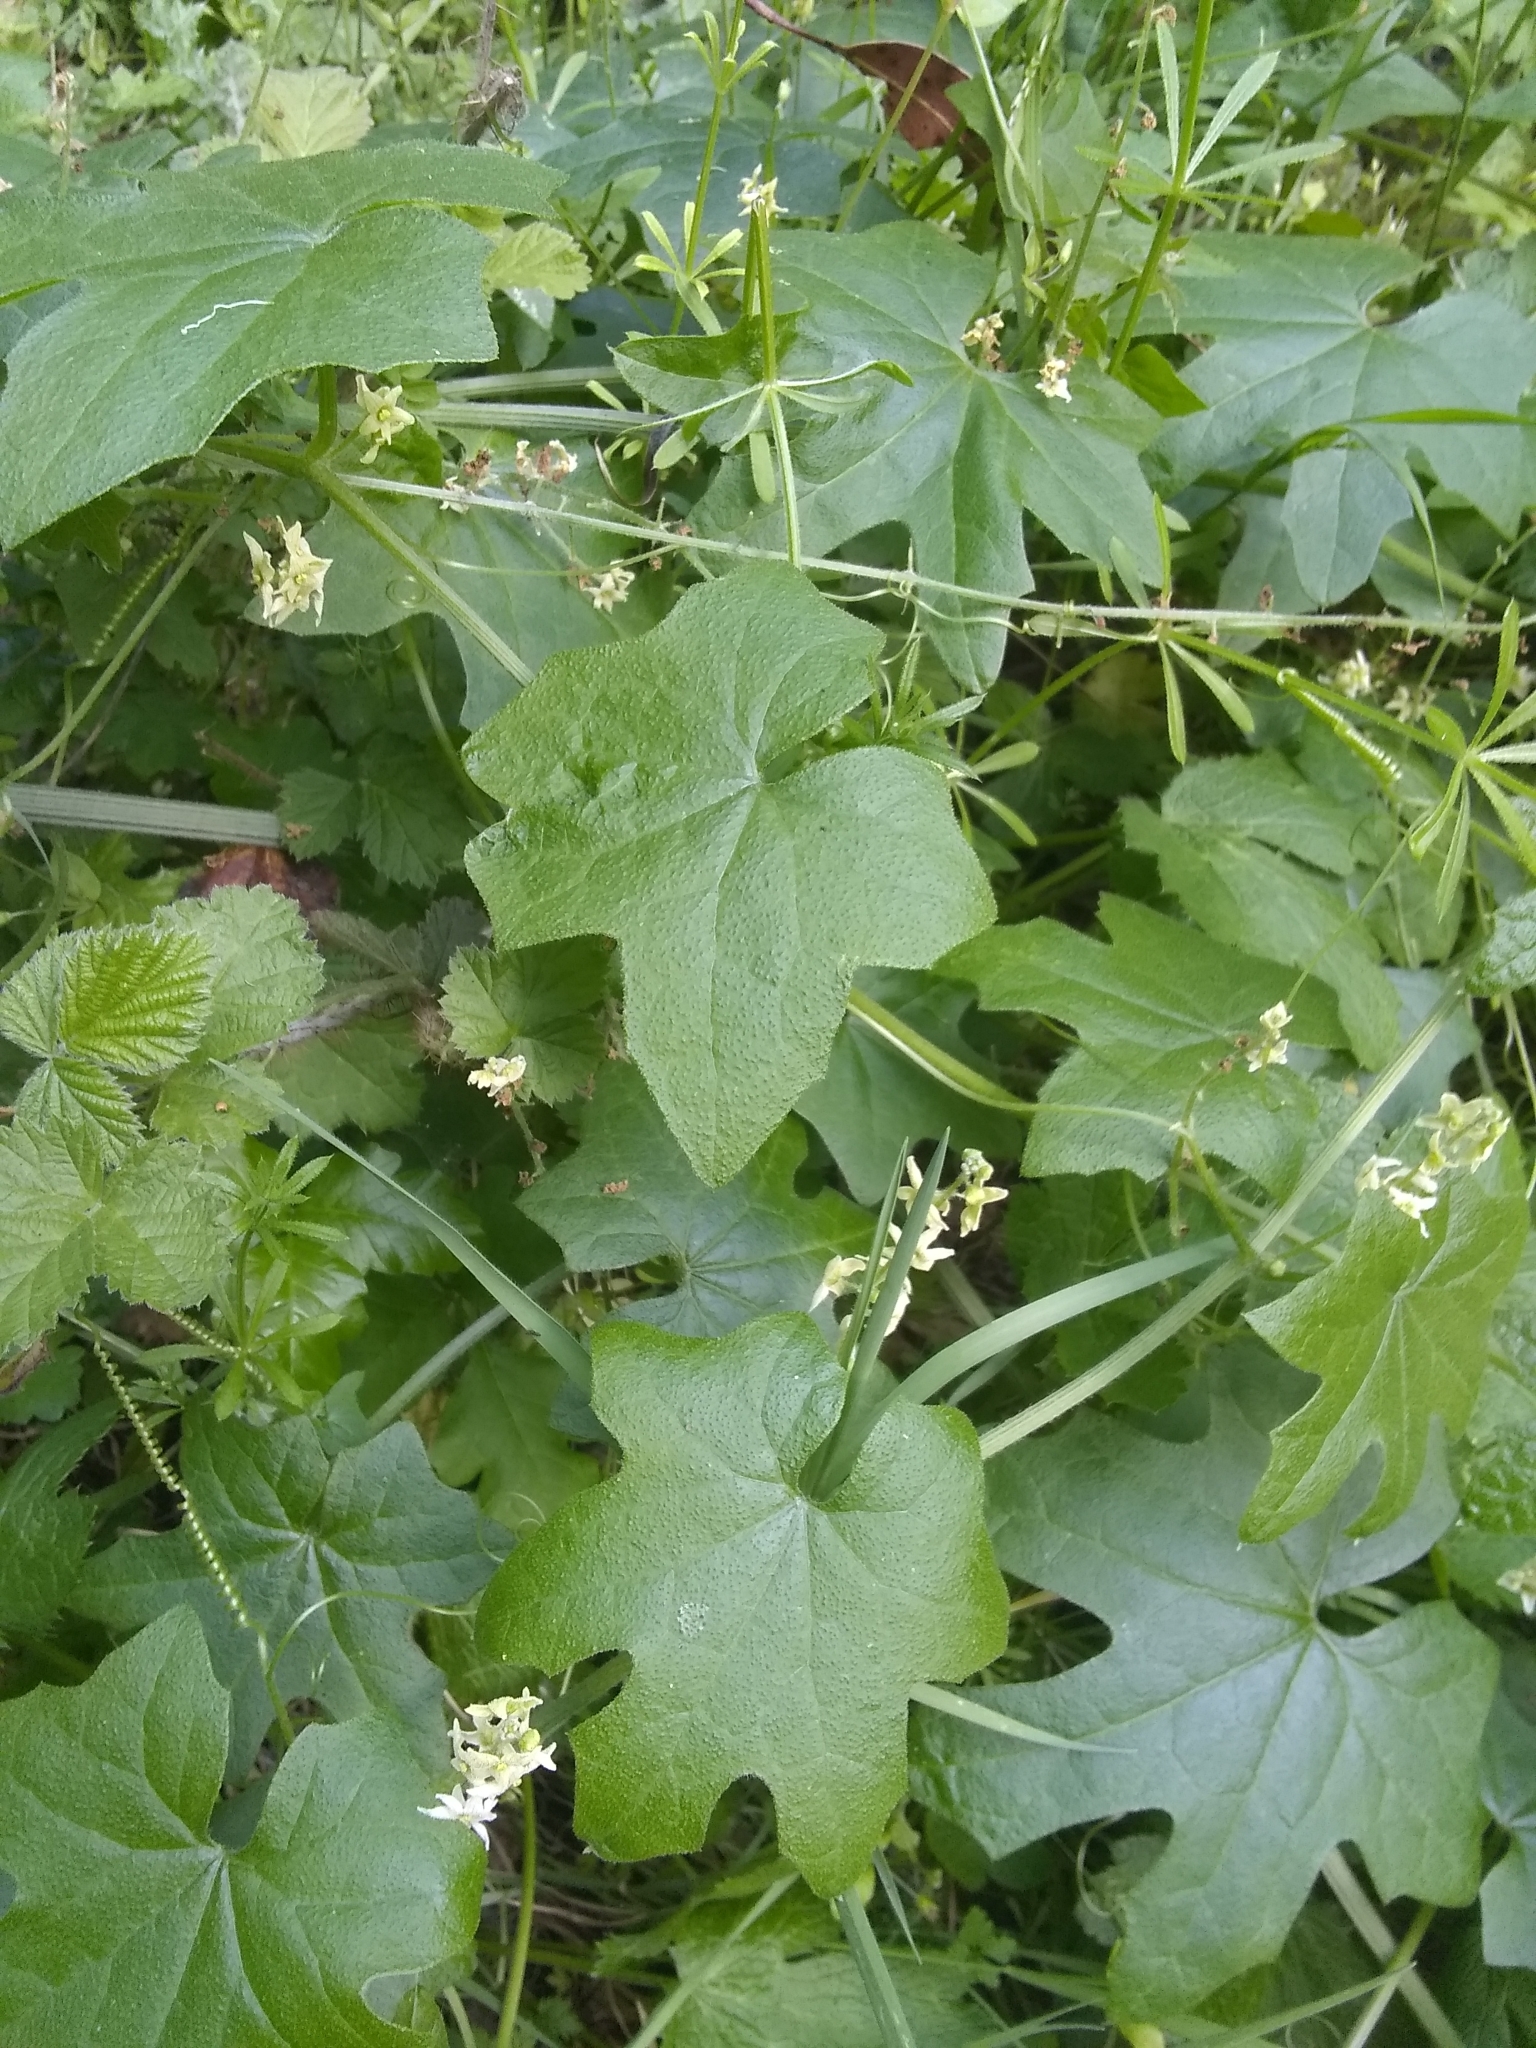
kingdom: Plantae
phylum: Tracheophyta
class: Magnoliopsida
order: Cucurbitales
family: Cucurbitaceae
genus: Marah
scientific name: Marah fabacea
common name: California manroot
